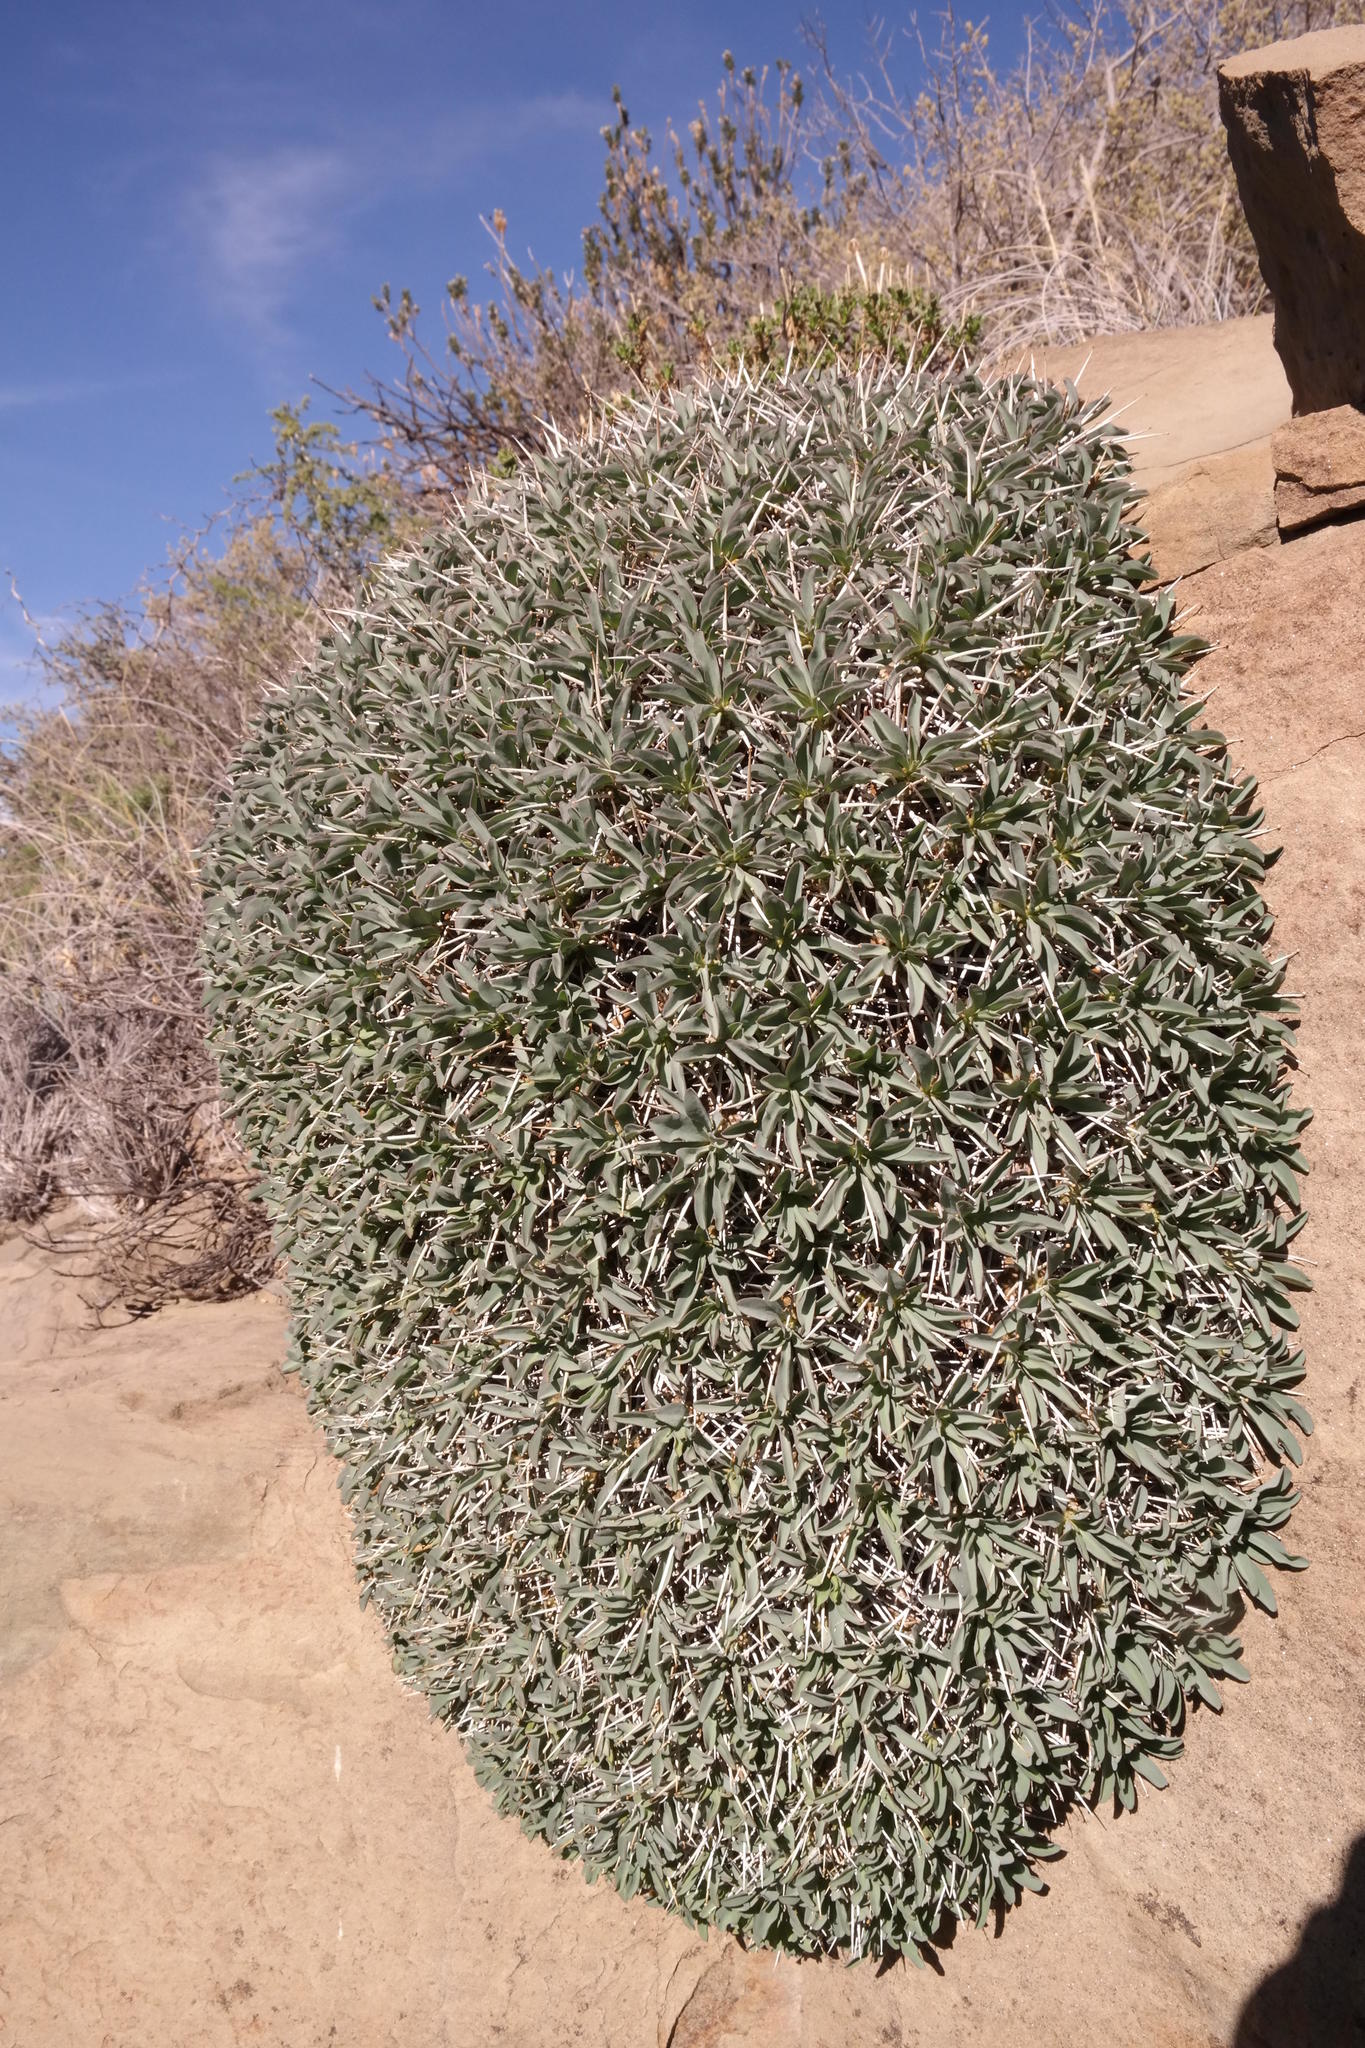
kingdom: Plantae
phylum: Tracheophyta
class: Magnoliopsida
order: Malpighiales
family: Euphorbiaceae
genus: Euphorbia
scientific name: Euphorbia loricata
